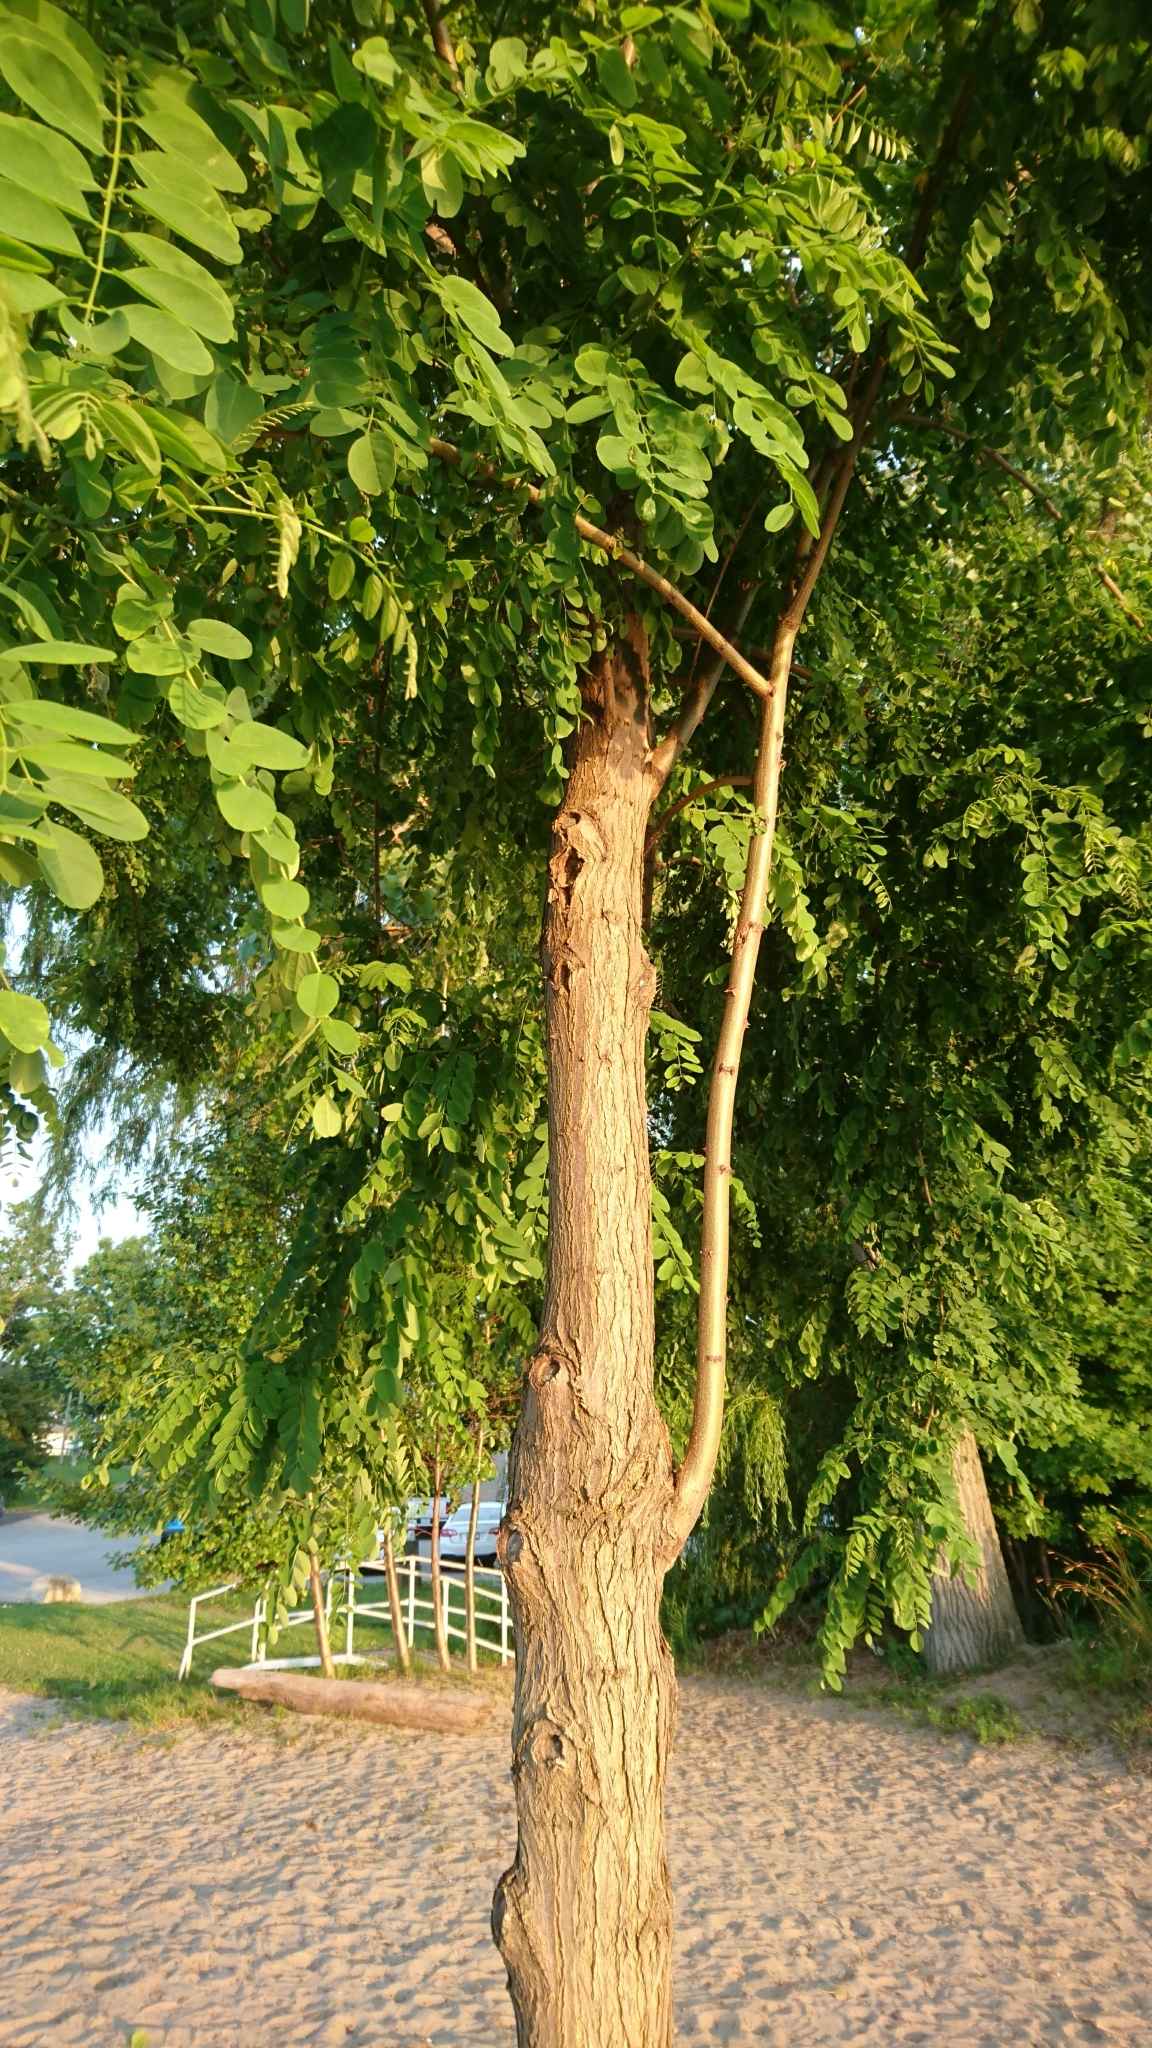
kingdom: Plantae
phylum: Tracheophyta
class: Magnoliopsida
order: Fabales
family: Fabaceae
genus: Robinia
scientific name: Robinia pseudoacacia
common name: Black locust
